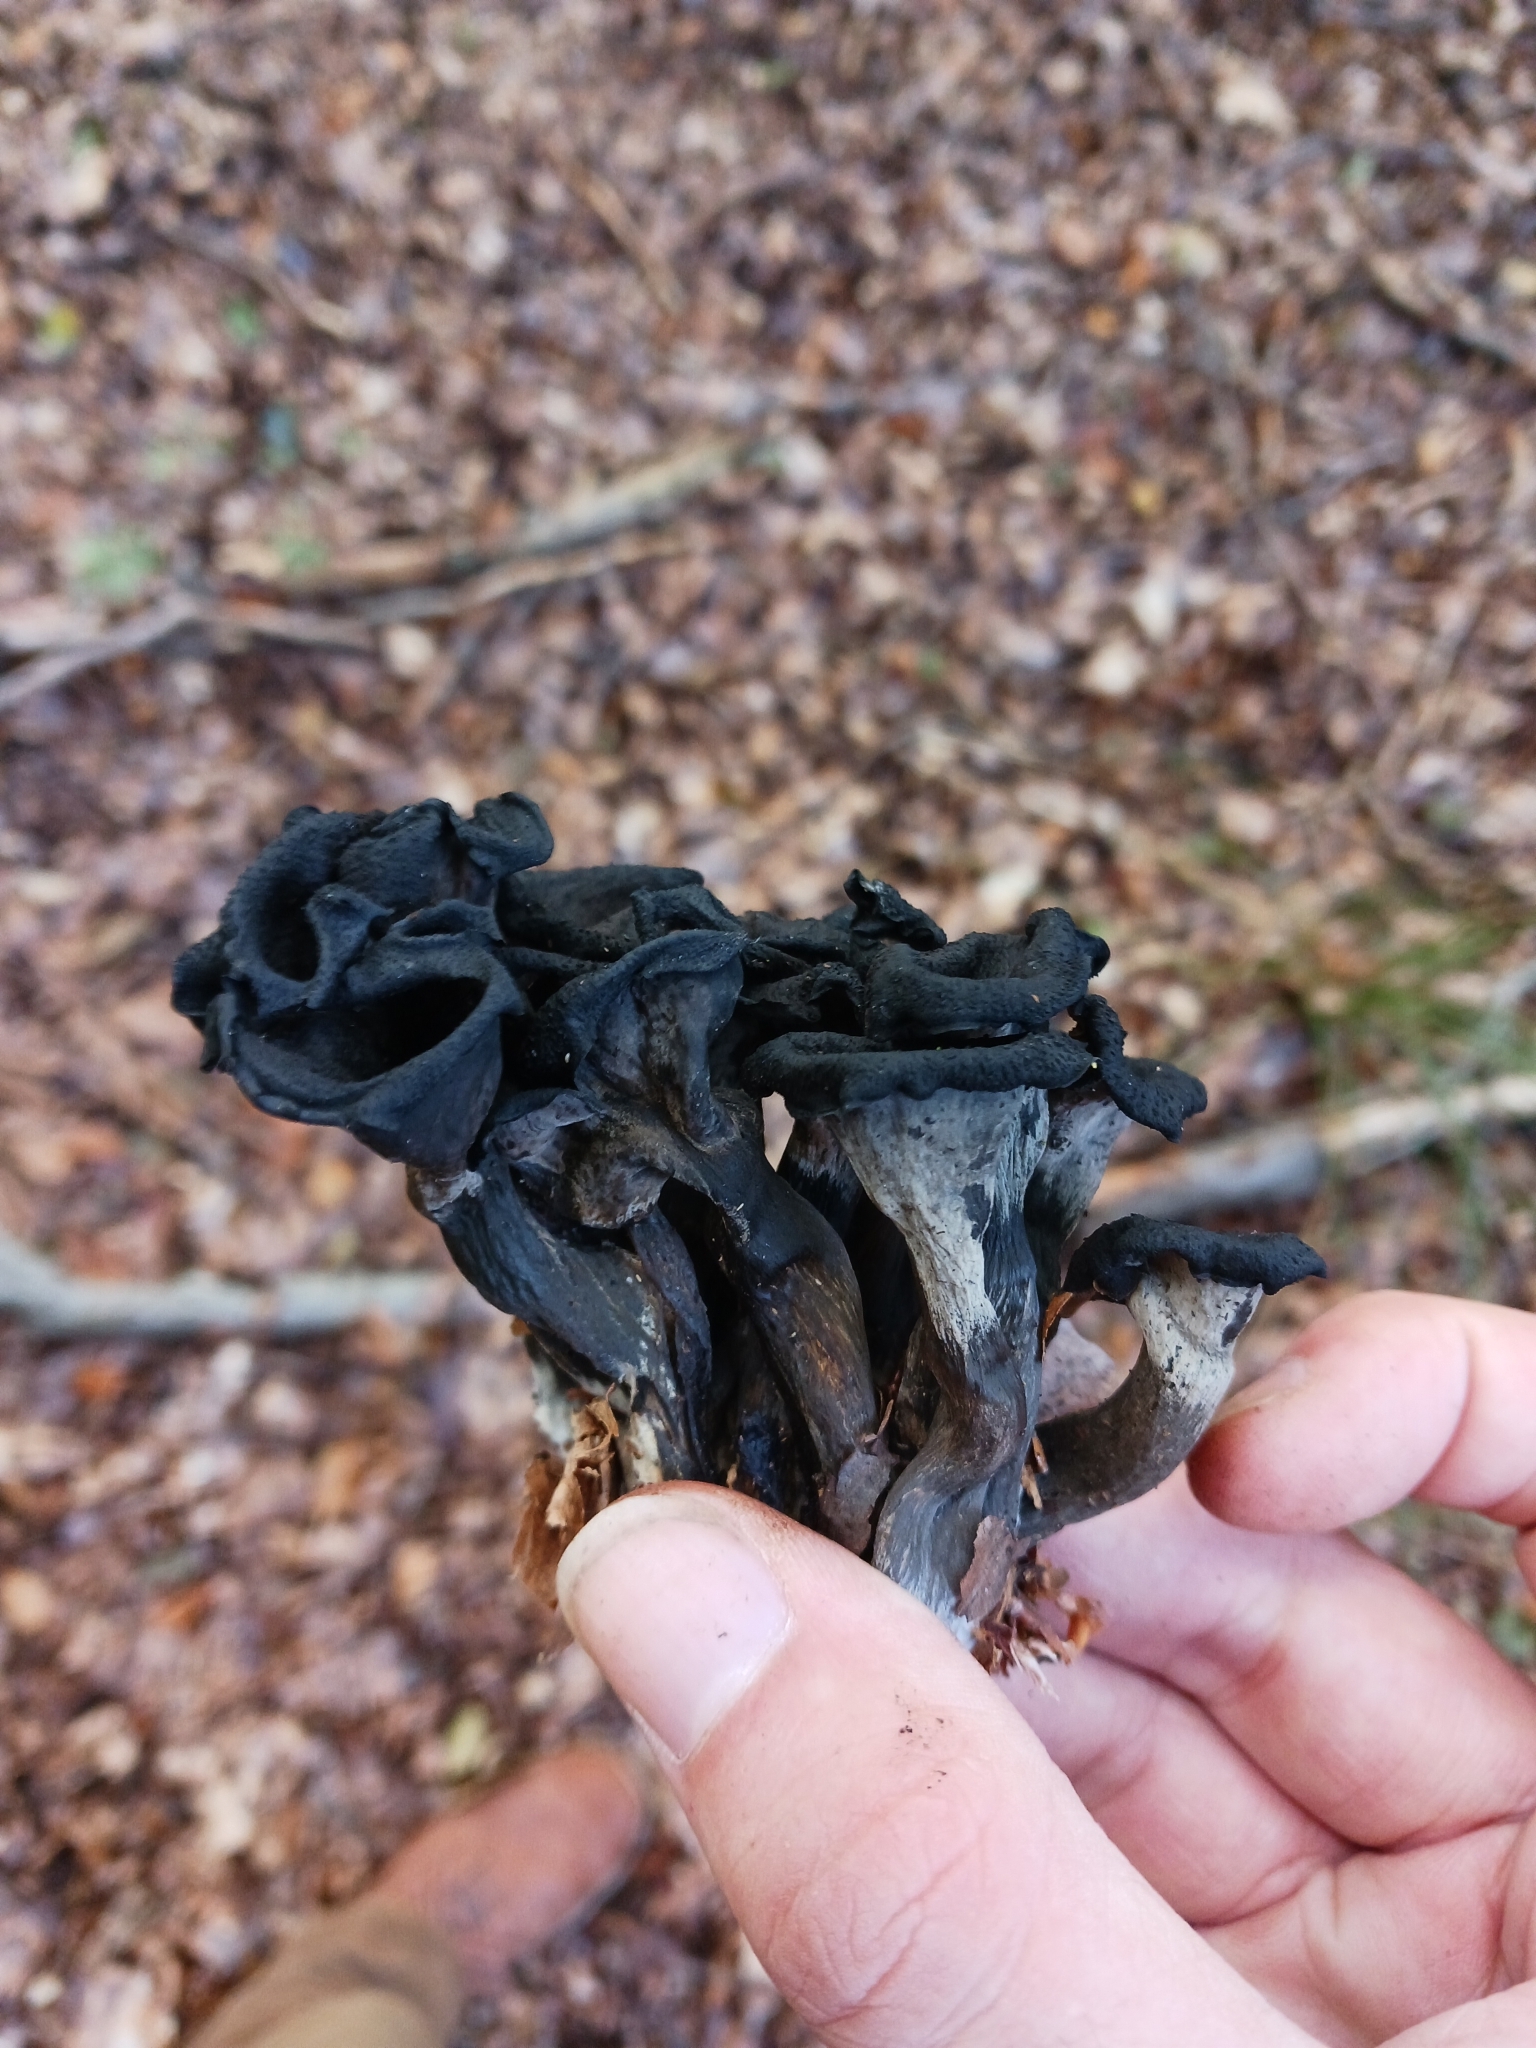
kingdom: Fungi
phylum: Basidiomycota
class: Agaricomycetes
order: Cantharellales
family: Hydnaceae
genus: Craterellus
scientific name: Craterellus cornucopioides
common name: Horn of plenty
